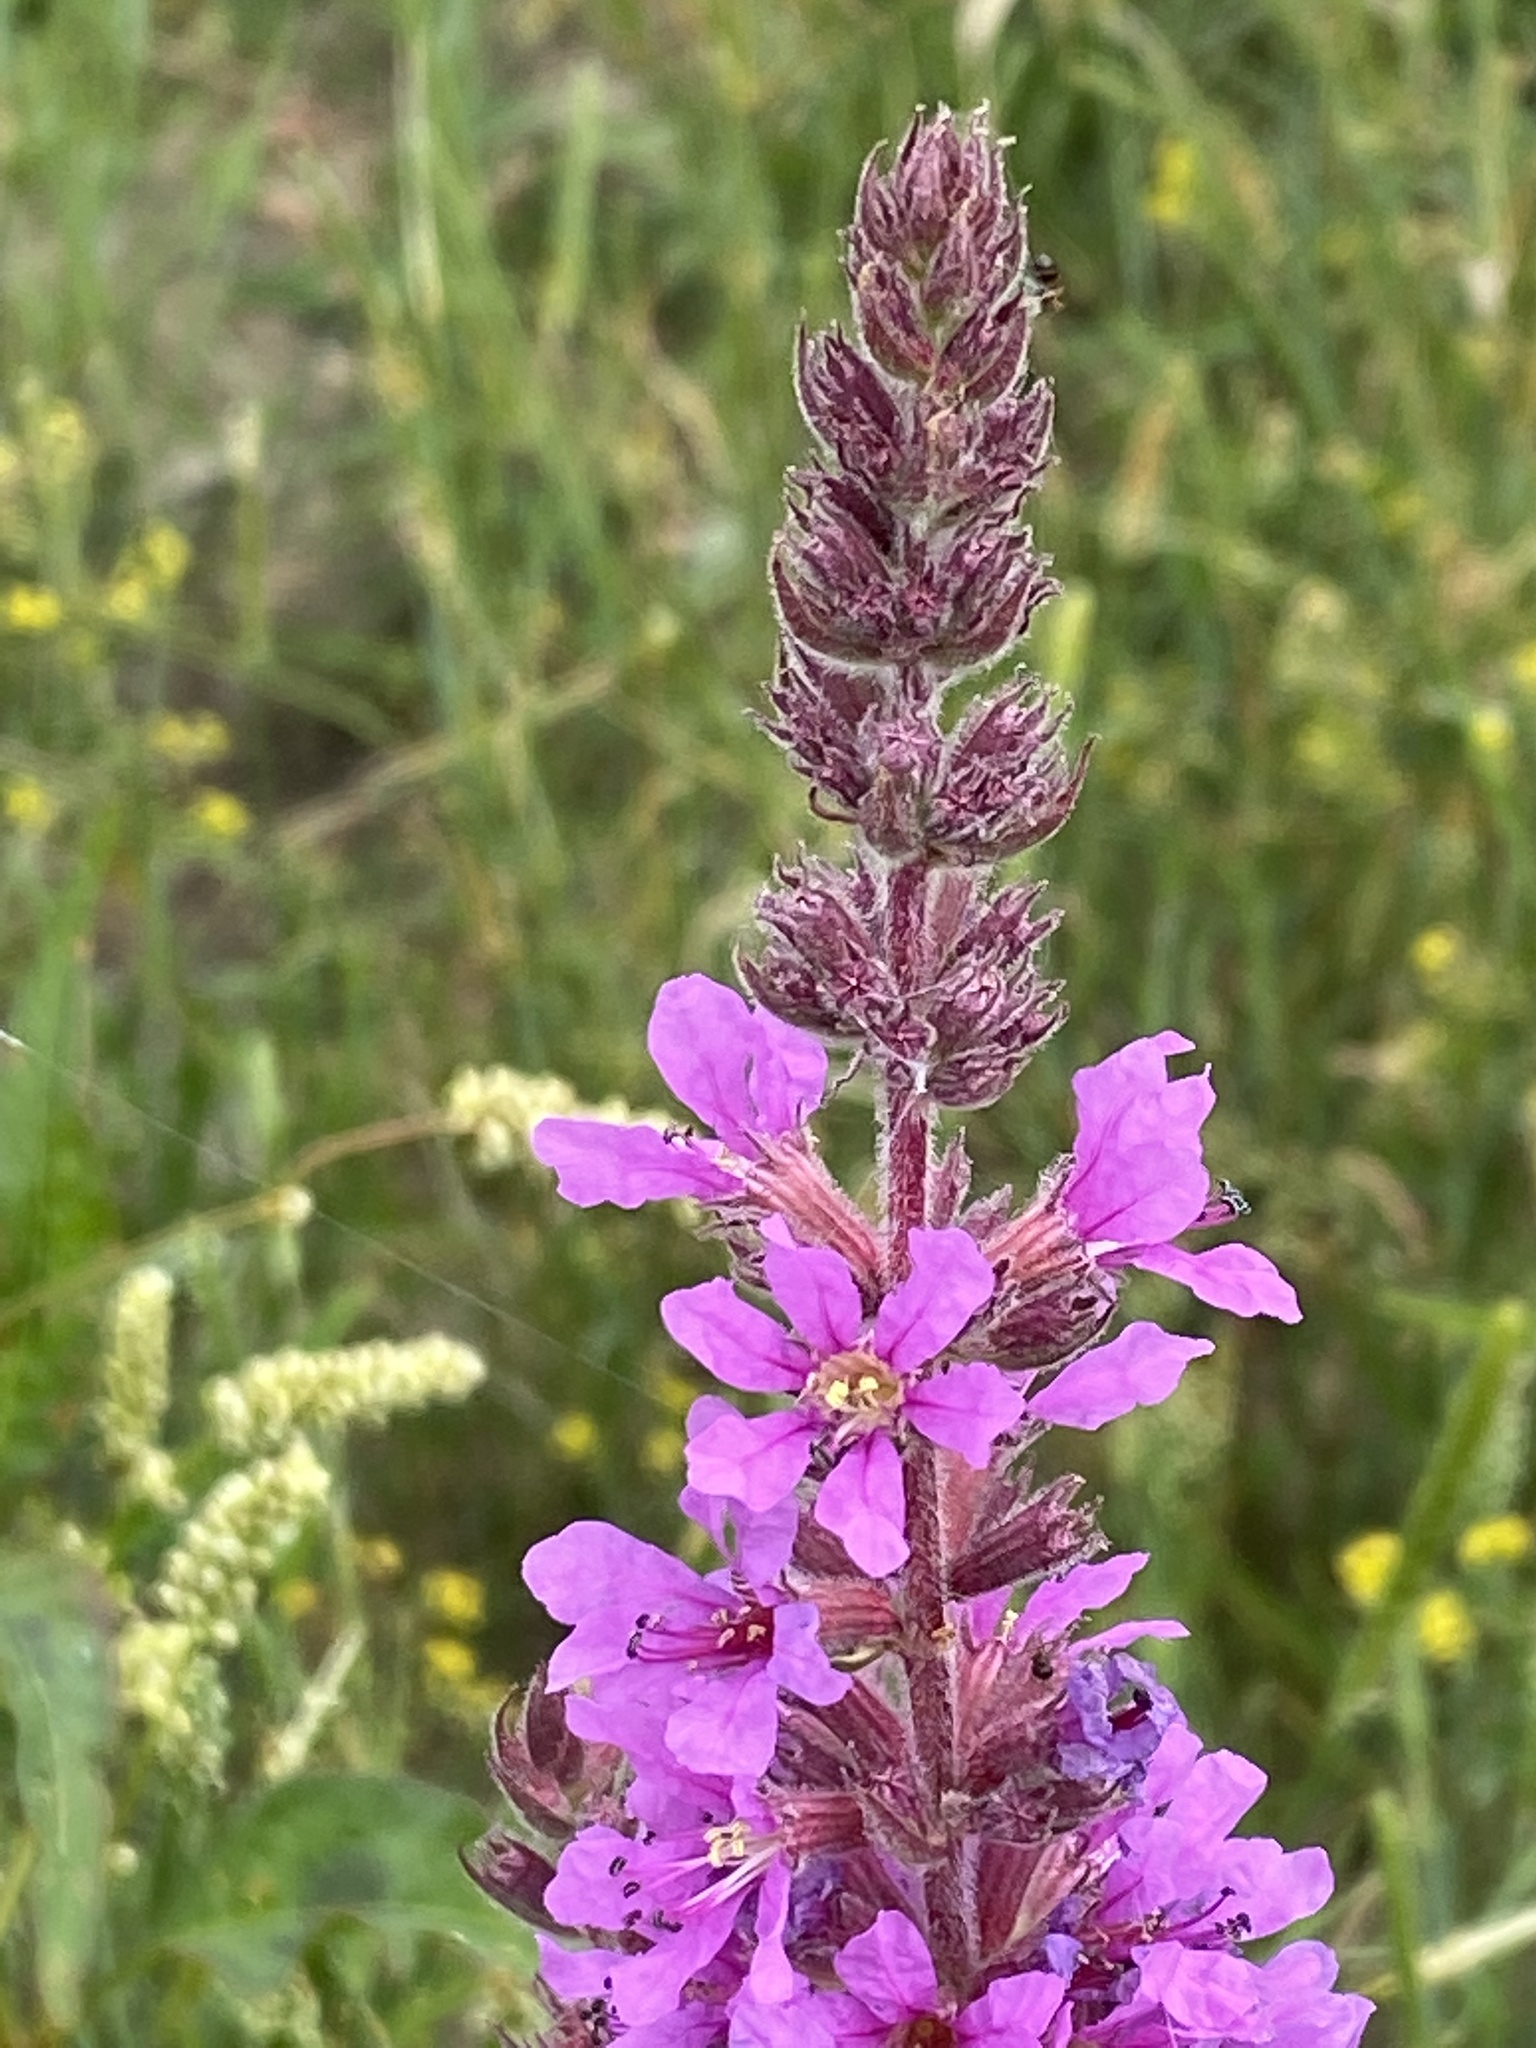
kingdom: Plantae
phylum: Tracheophyta
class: Magnoliopsida
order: Myrtales
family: Lythraceae
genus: Lythrum
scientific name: Lythrum salicaria
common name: Purple loosestrife
